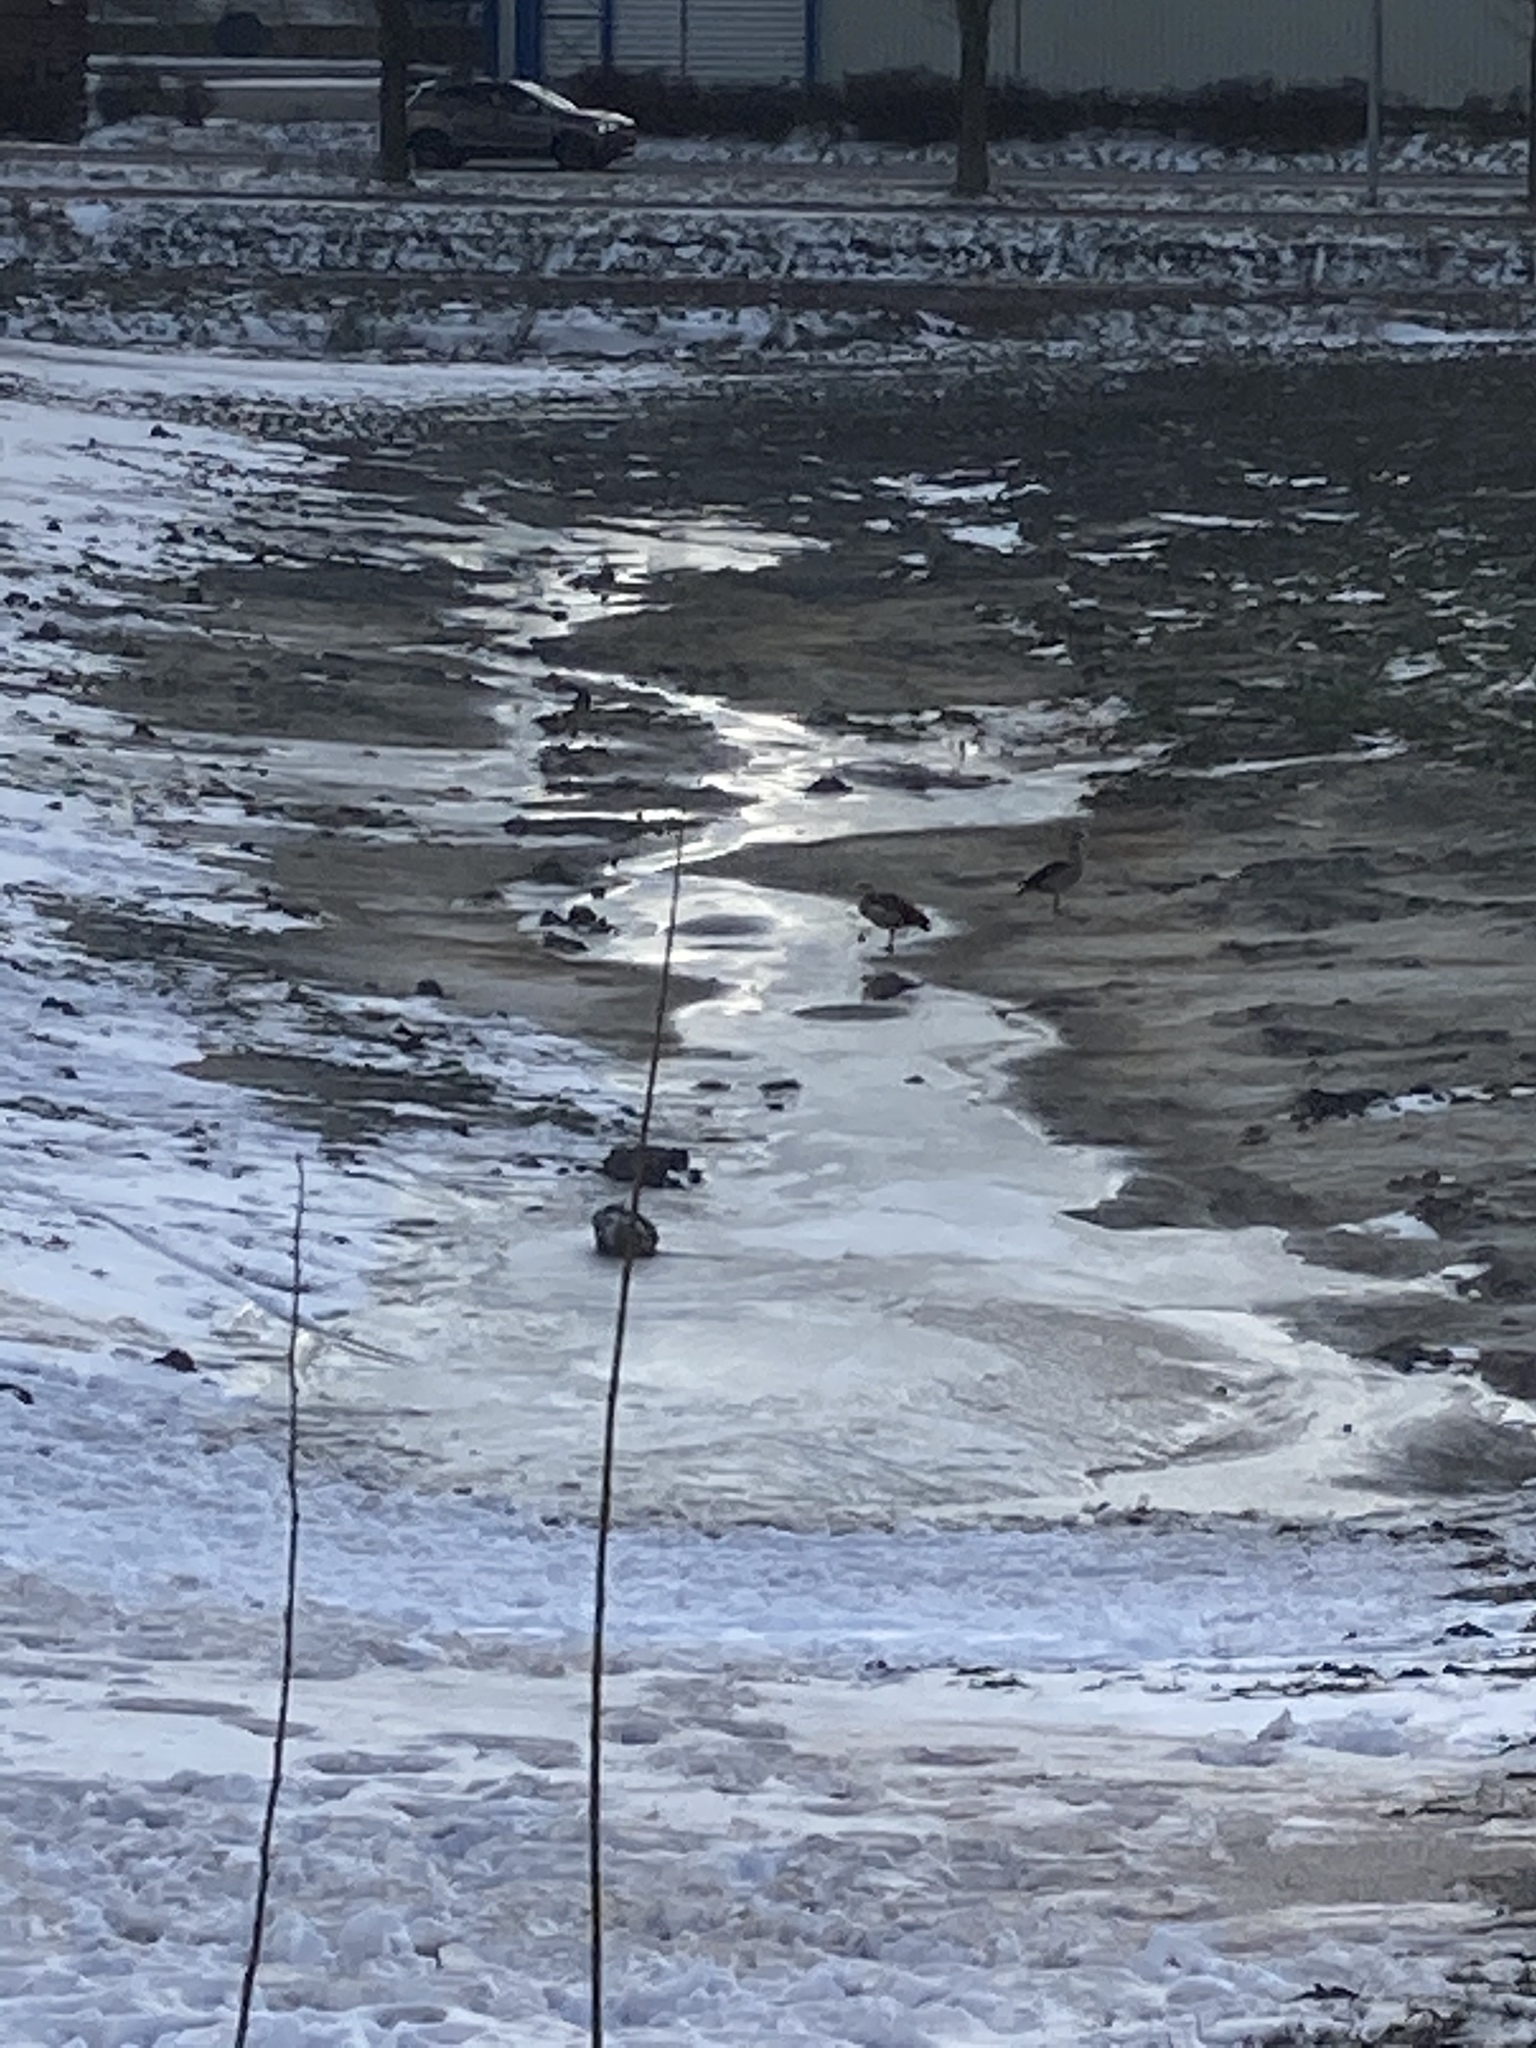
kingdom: Animalia
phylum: Chordata
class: Aves
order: Anseriformes
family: Anatidae
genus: Alopochen
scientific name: Alopochen aegyptiaca
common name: Egyptian goose
